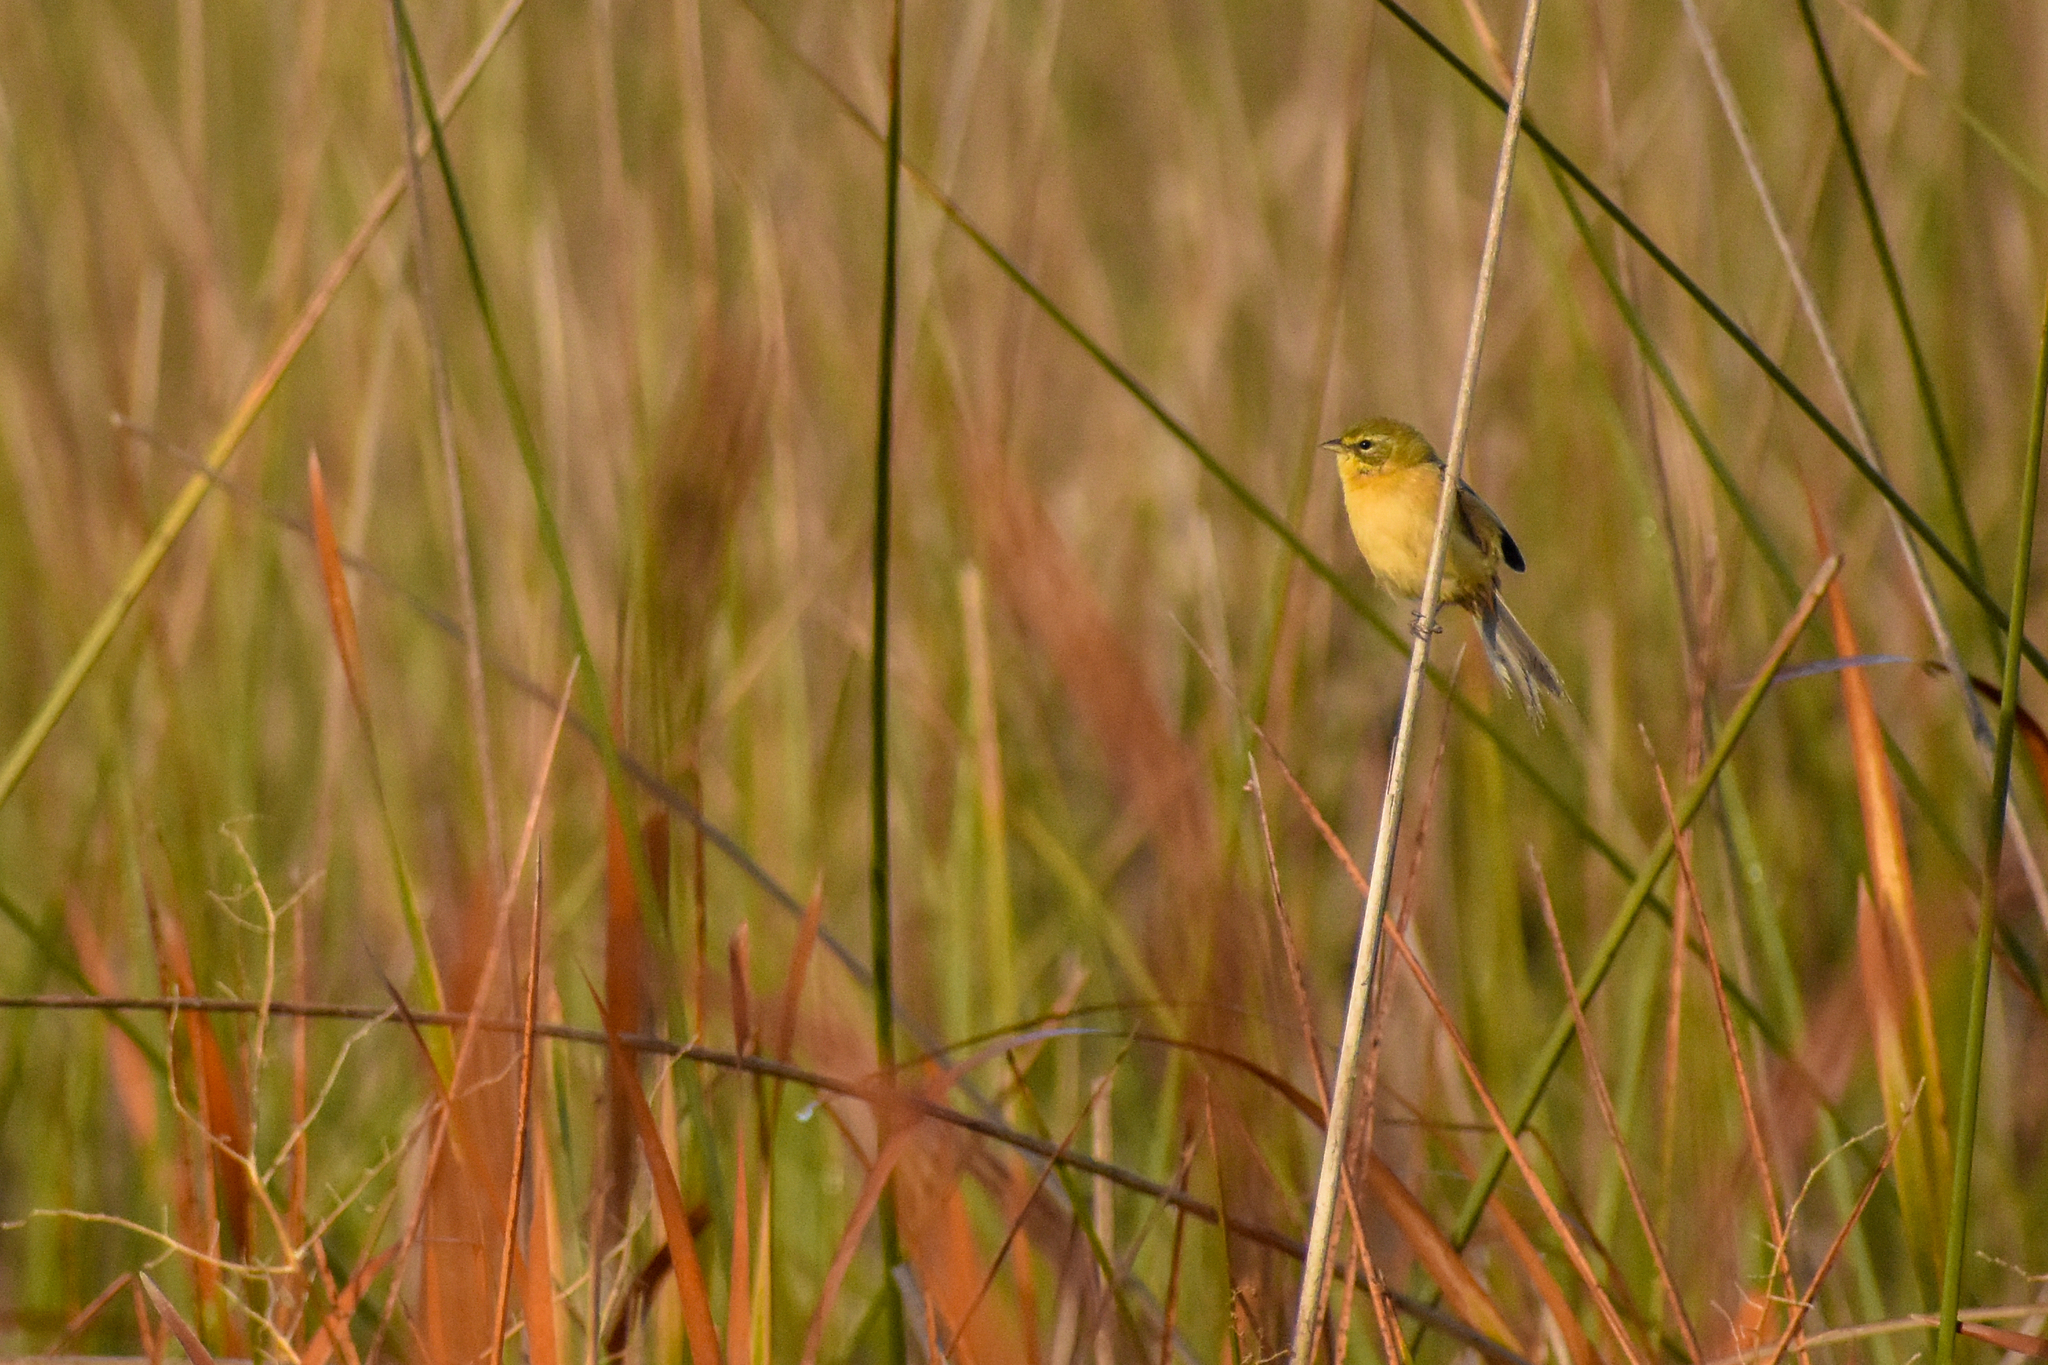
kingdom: Animalia
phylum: Chordata
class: Aves
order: Passeriformes
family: Thraupidae
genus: Donacospiza
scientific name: Donacospiza albifrons
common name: Long-tailed reed finch
